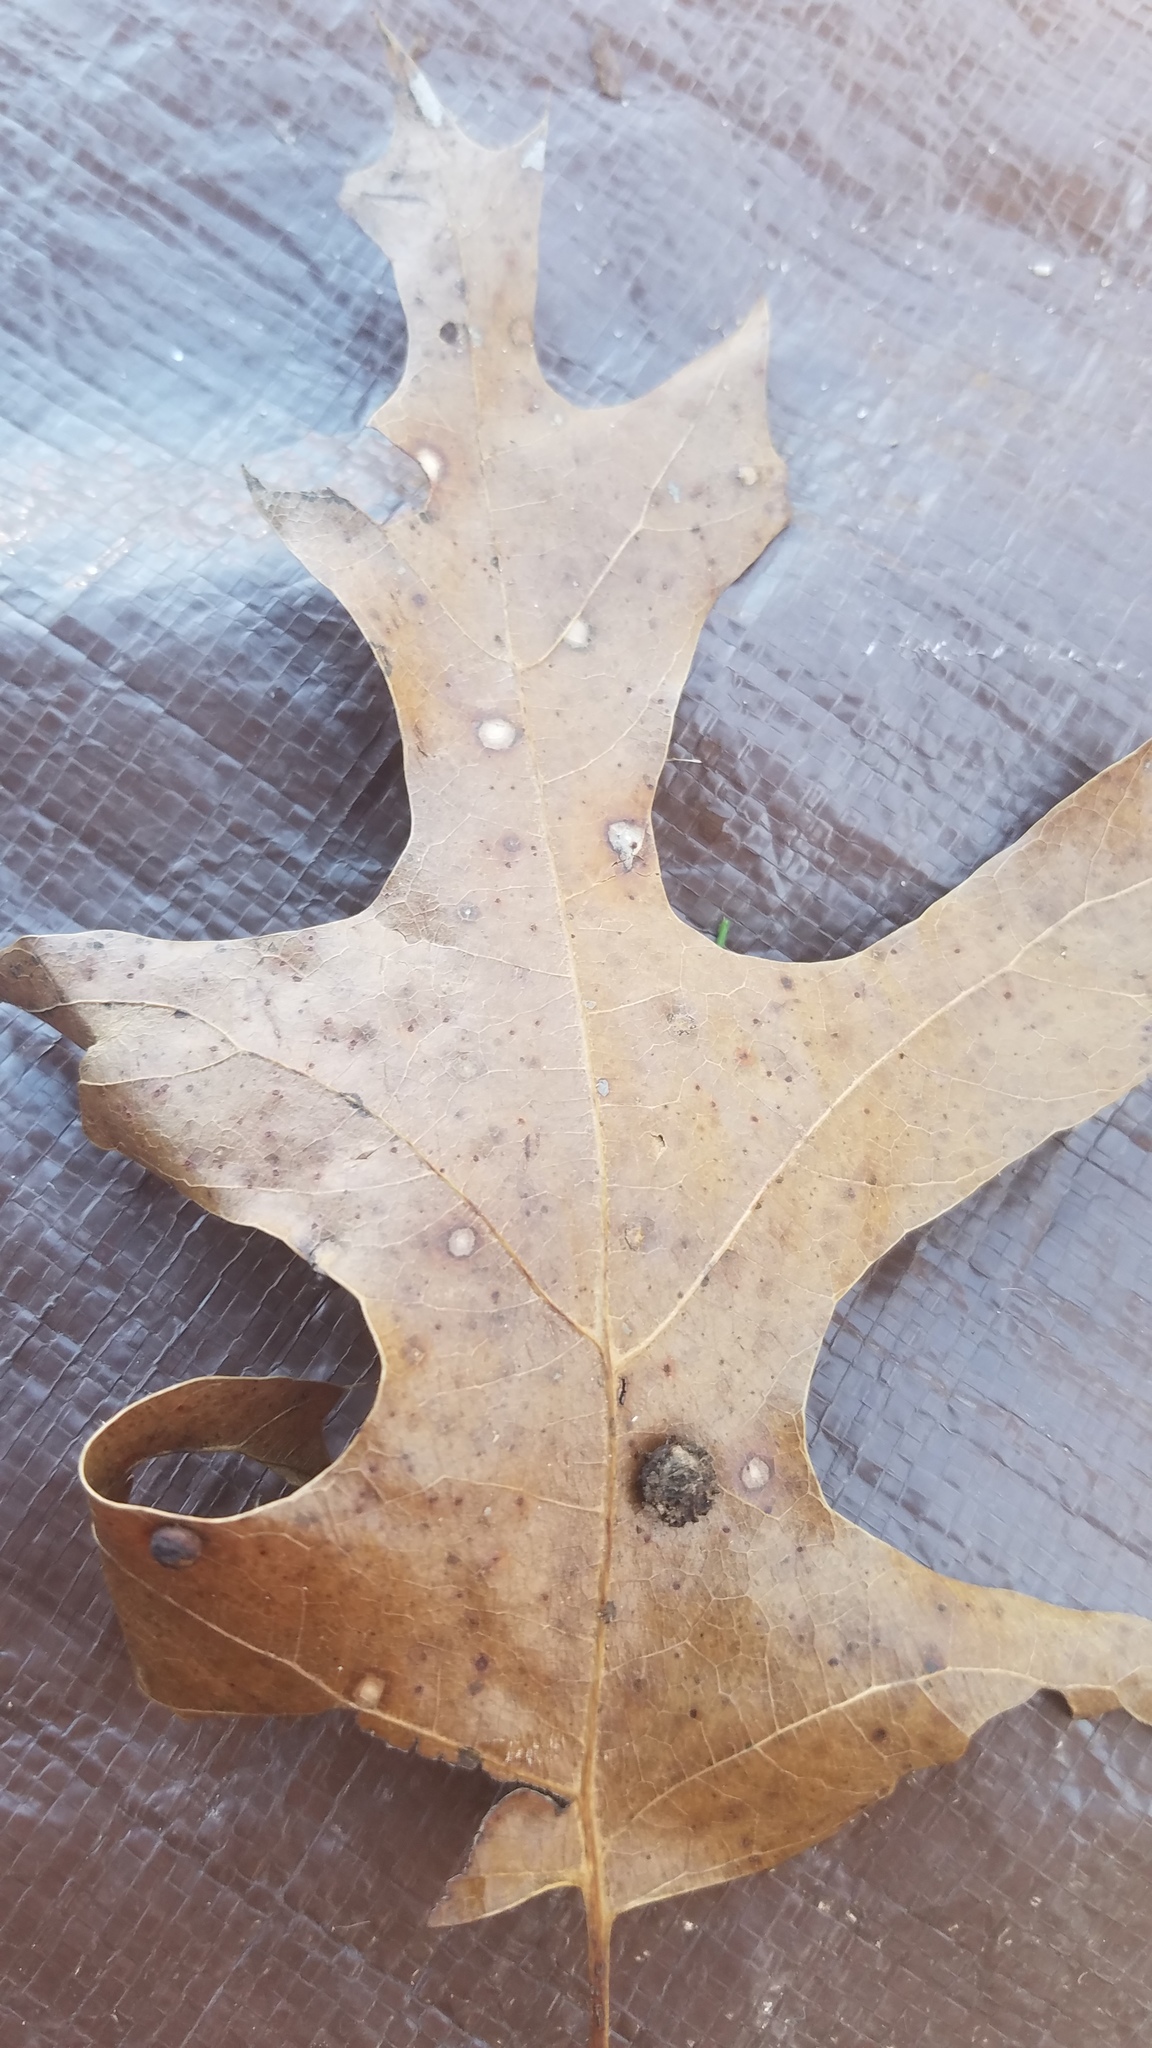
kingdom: Animalia
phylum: Arthropoda
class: Insecta
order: Diptera
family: Cecidomyiidae
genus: Polystepha
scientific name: Polystepha pilulae
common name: Oak leaf gall midge
